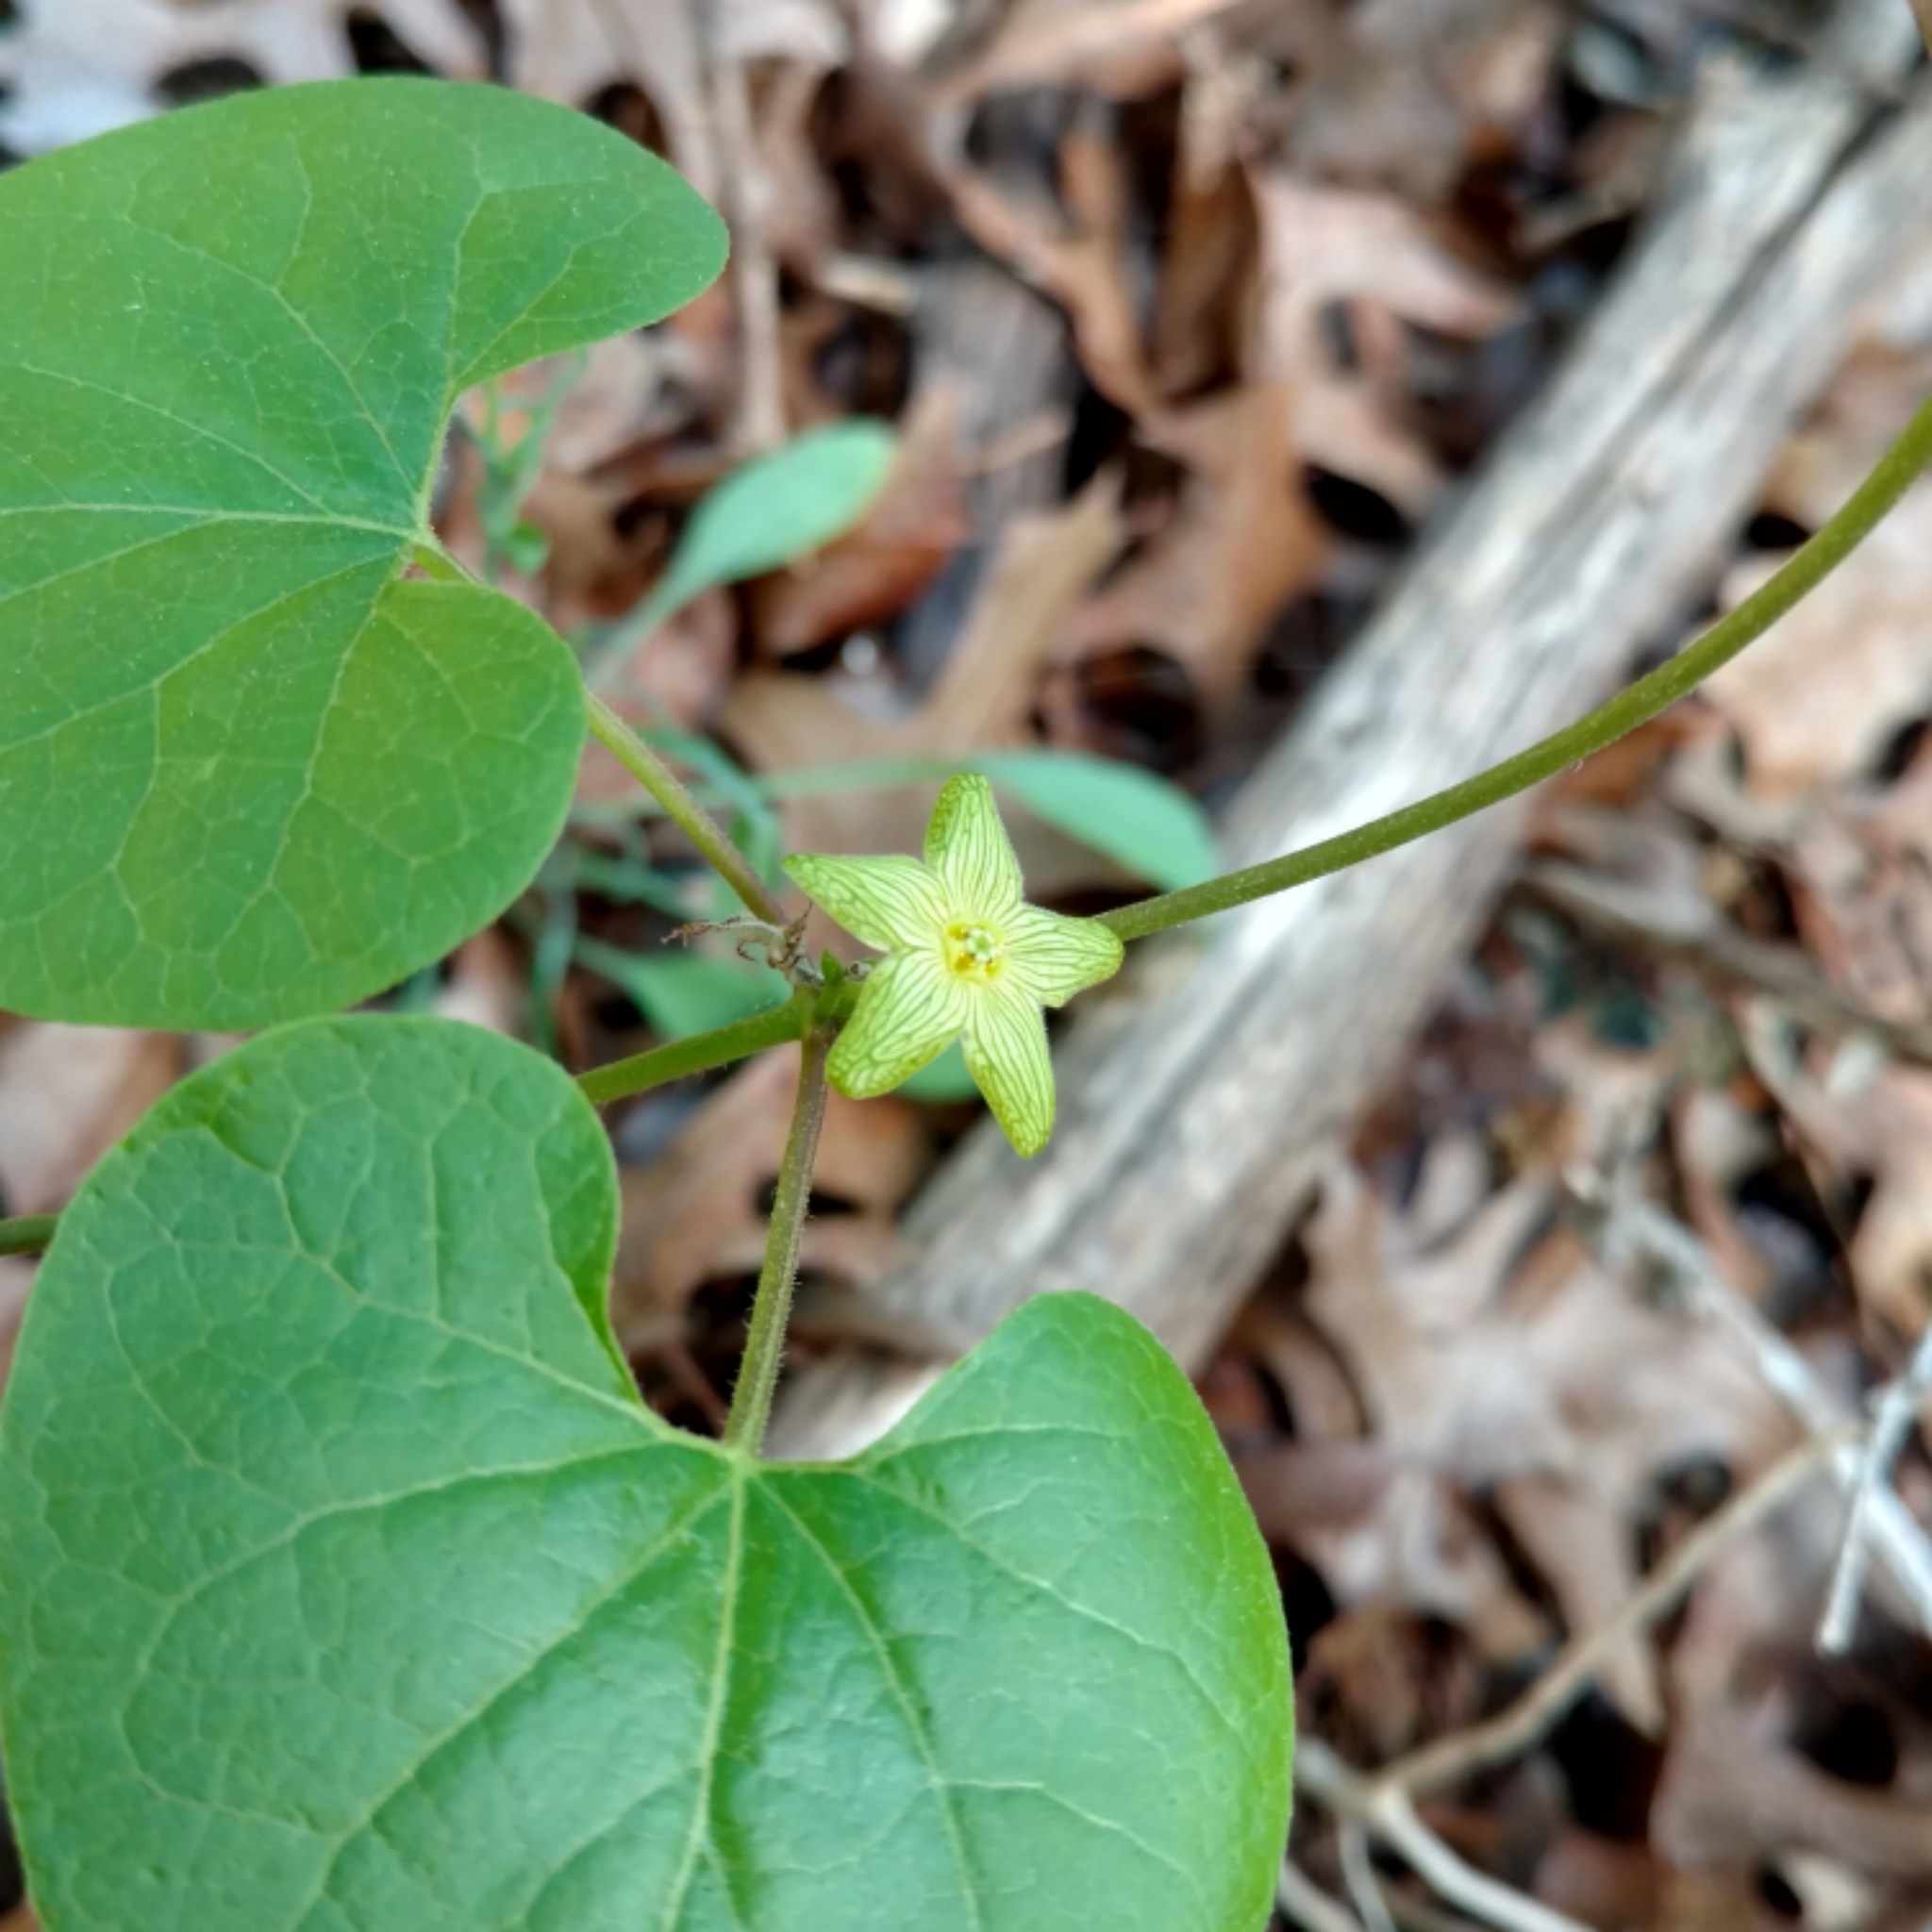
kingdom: Plantae
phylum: Tracheophyta
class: Magnoliopsida
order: Gentianales
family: Apocynaceae
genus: Matelea
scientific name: Matelea edwardsensis
